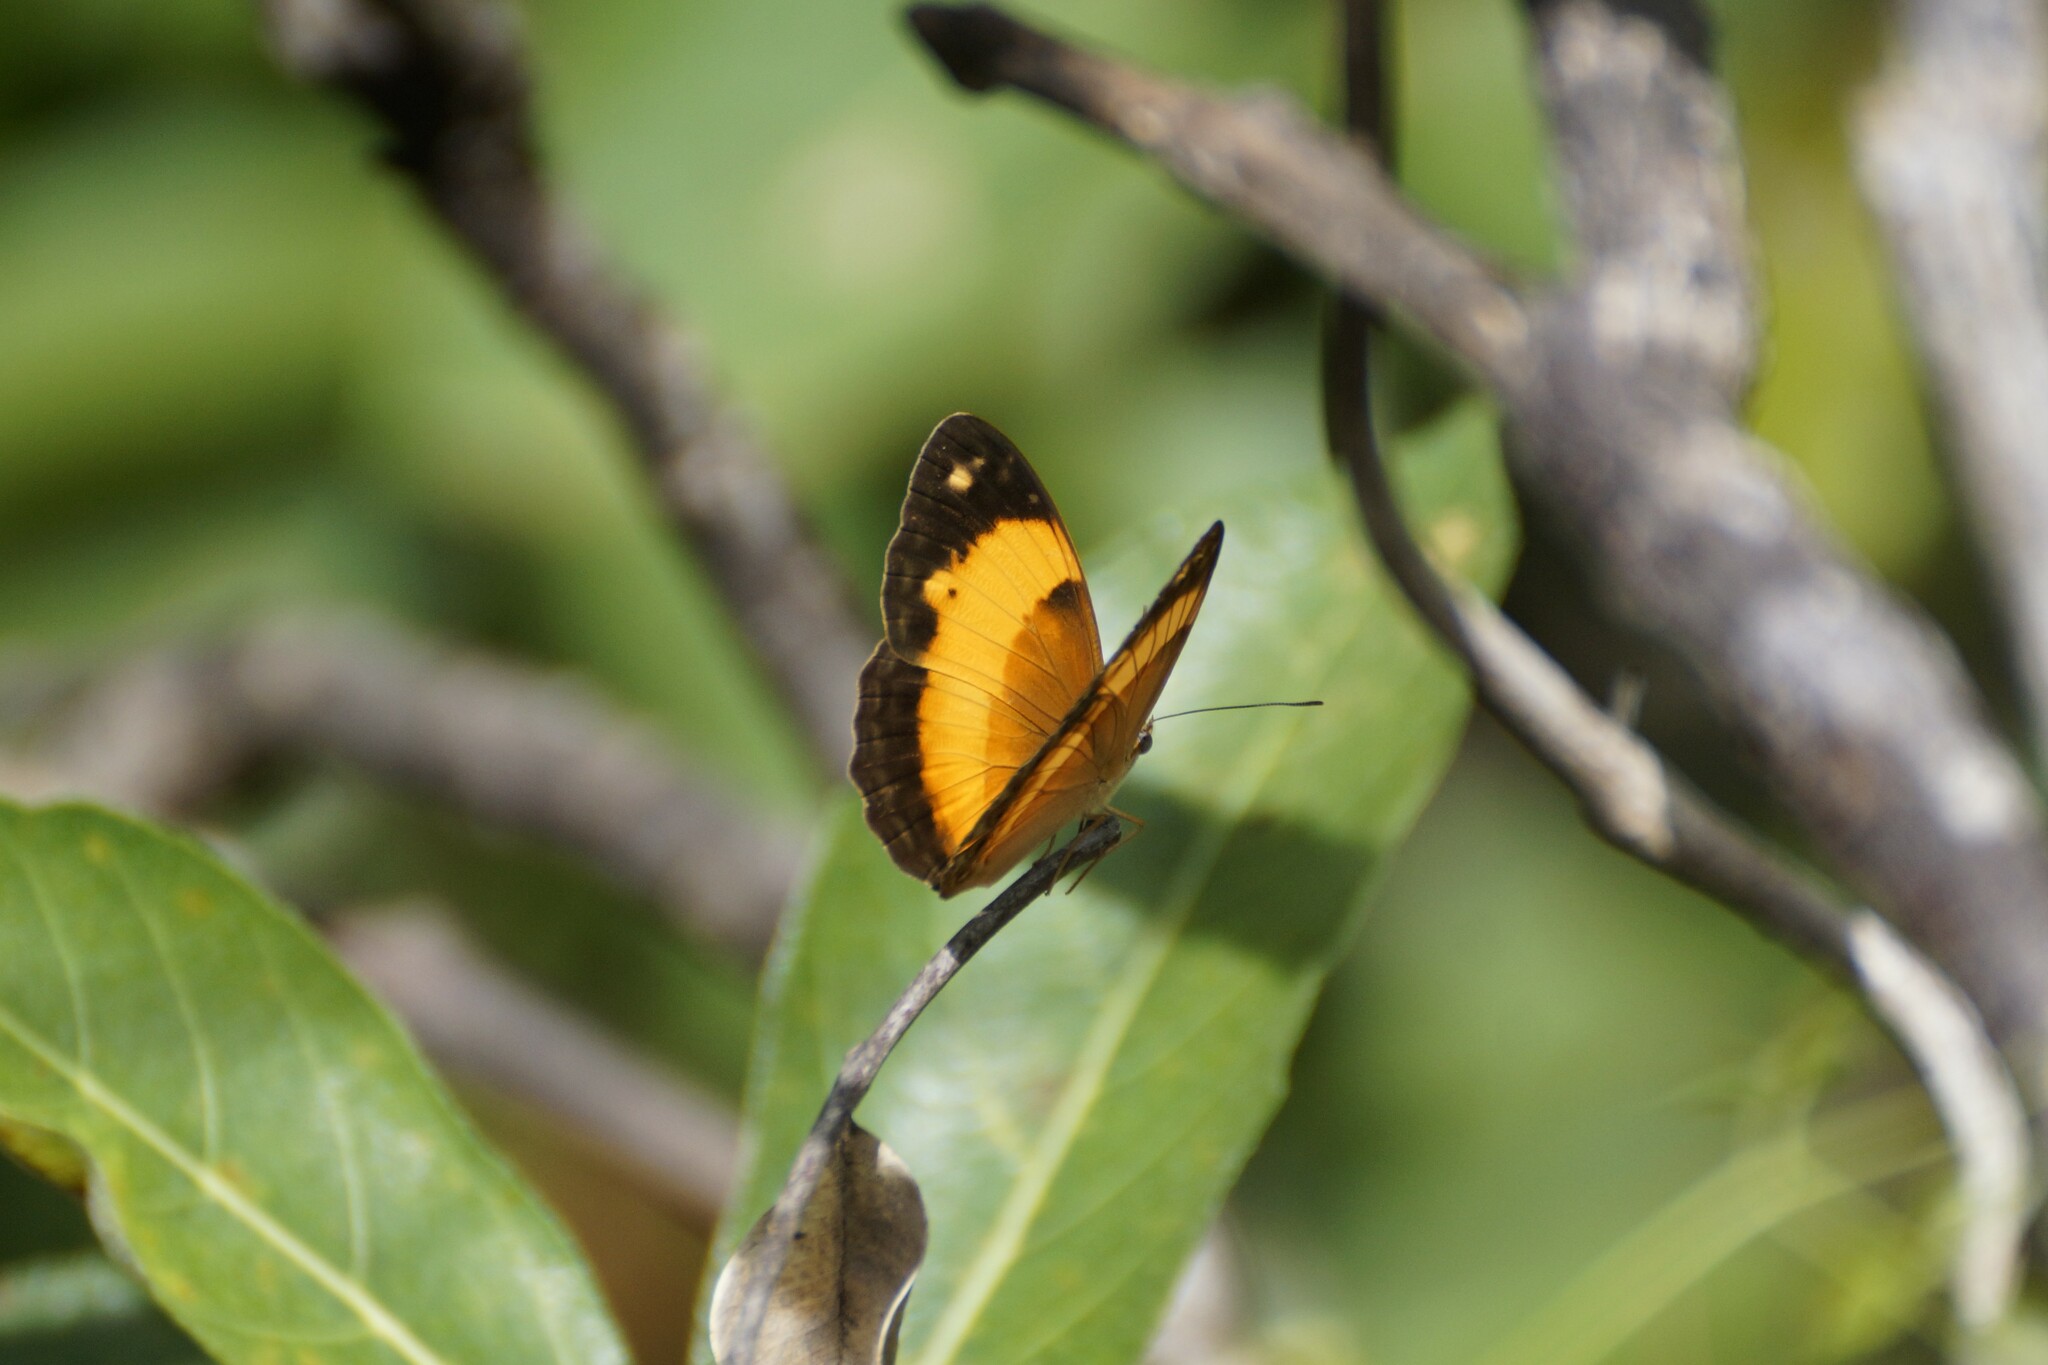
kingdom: Animalia
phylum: Arthropoda
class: Insecta
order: Lepidoptera
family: Nymphalidae
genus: Cupha
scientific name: Cupha prosope
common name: Bordered rustic
